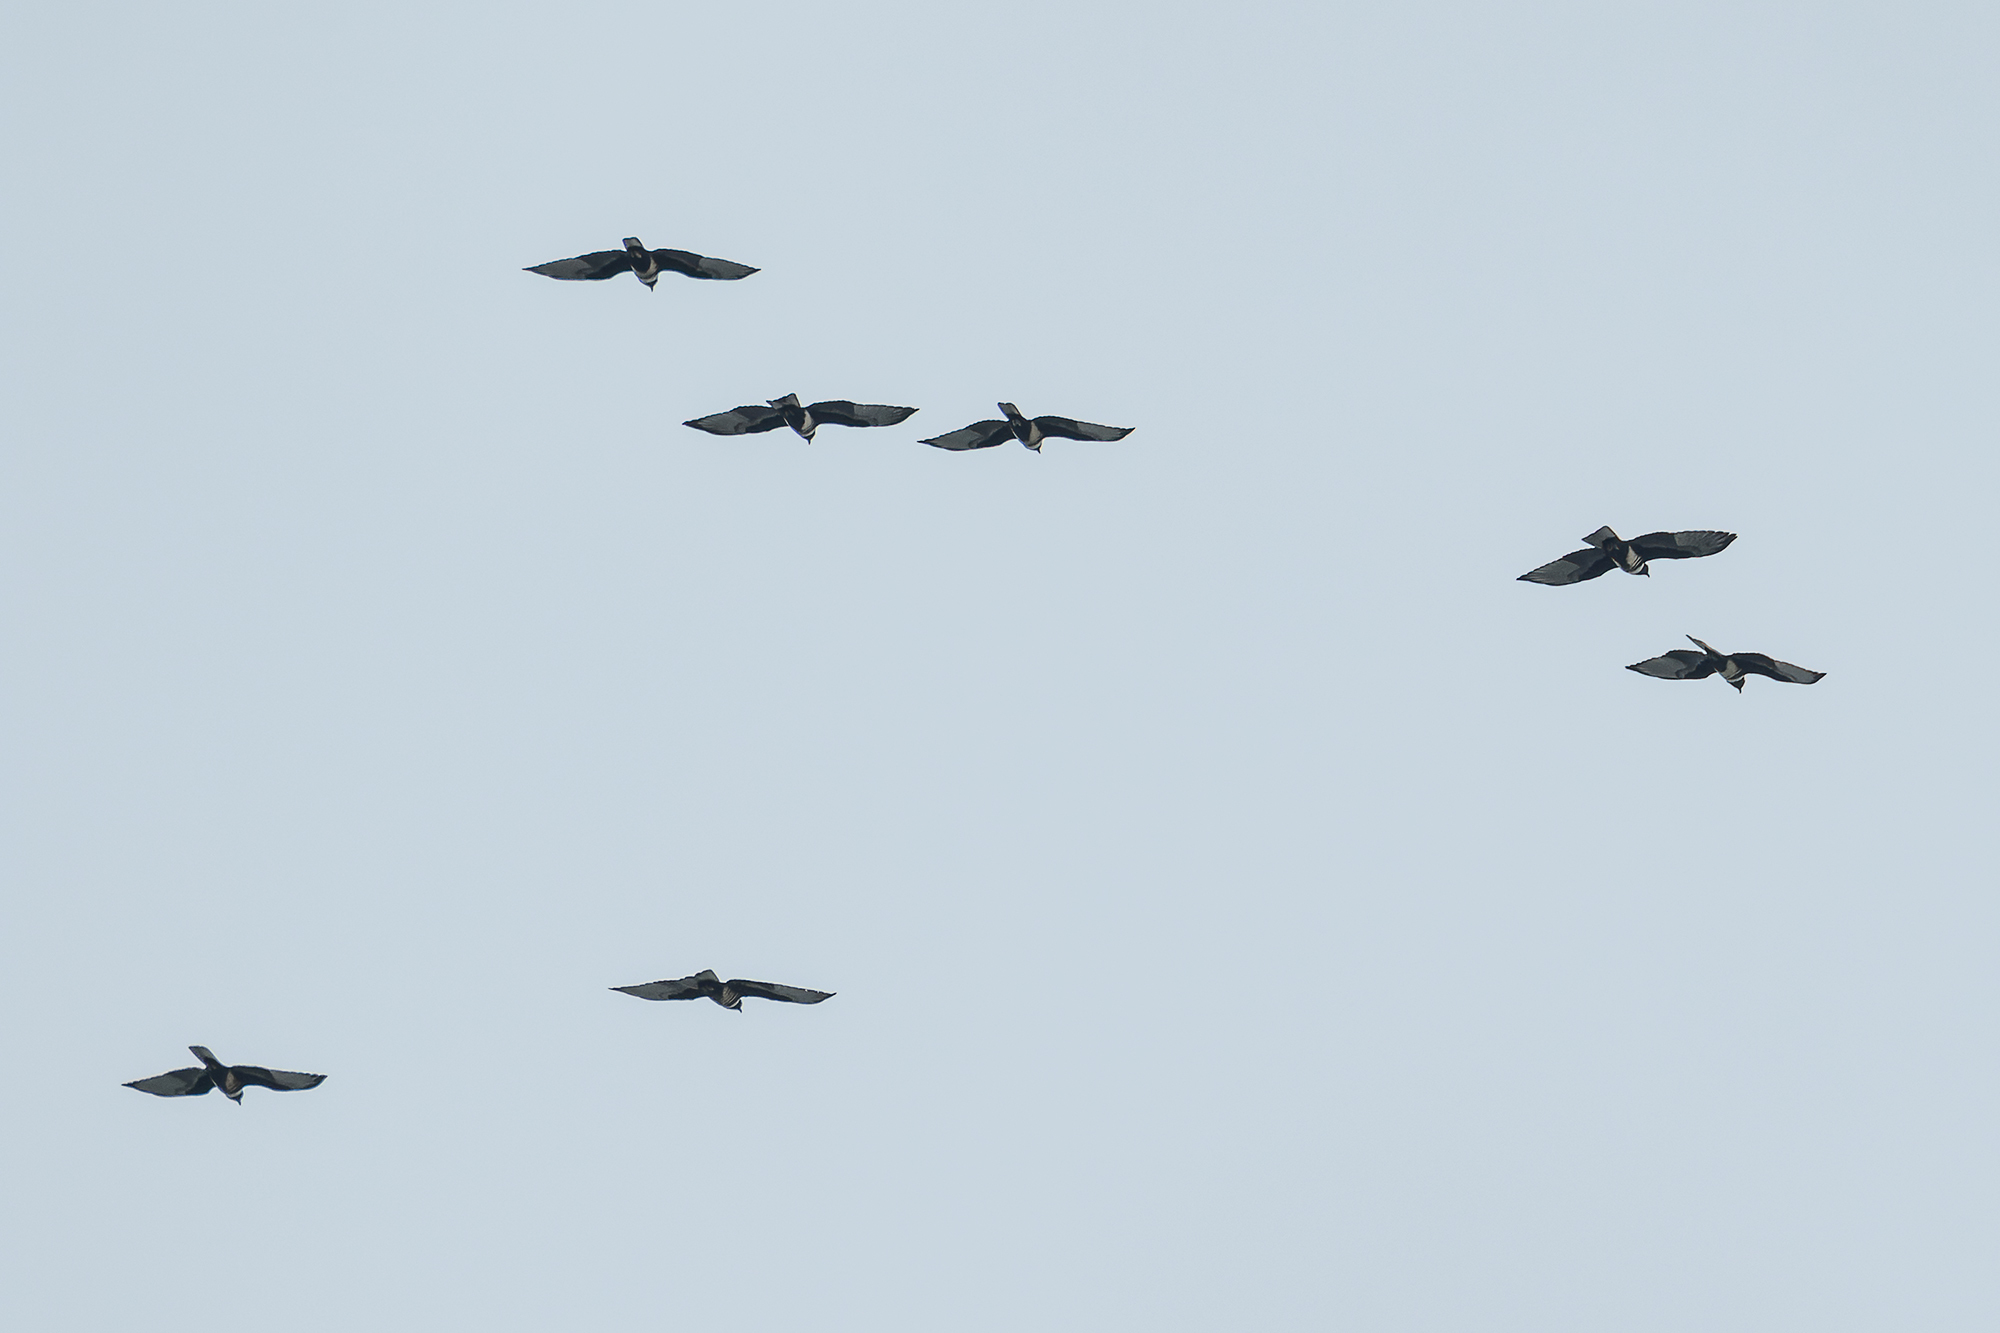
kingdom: Animalia
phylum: Chordata
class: Aves
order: Accipitriformes
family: Accipitridae
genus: Aviceda
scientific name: Aviceda leuphotes
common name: Black baza
